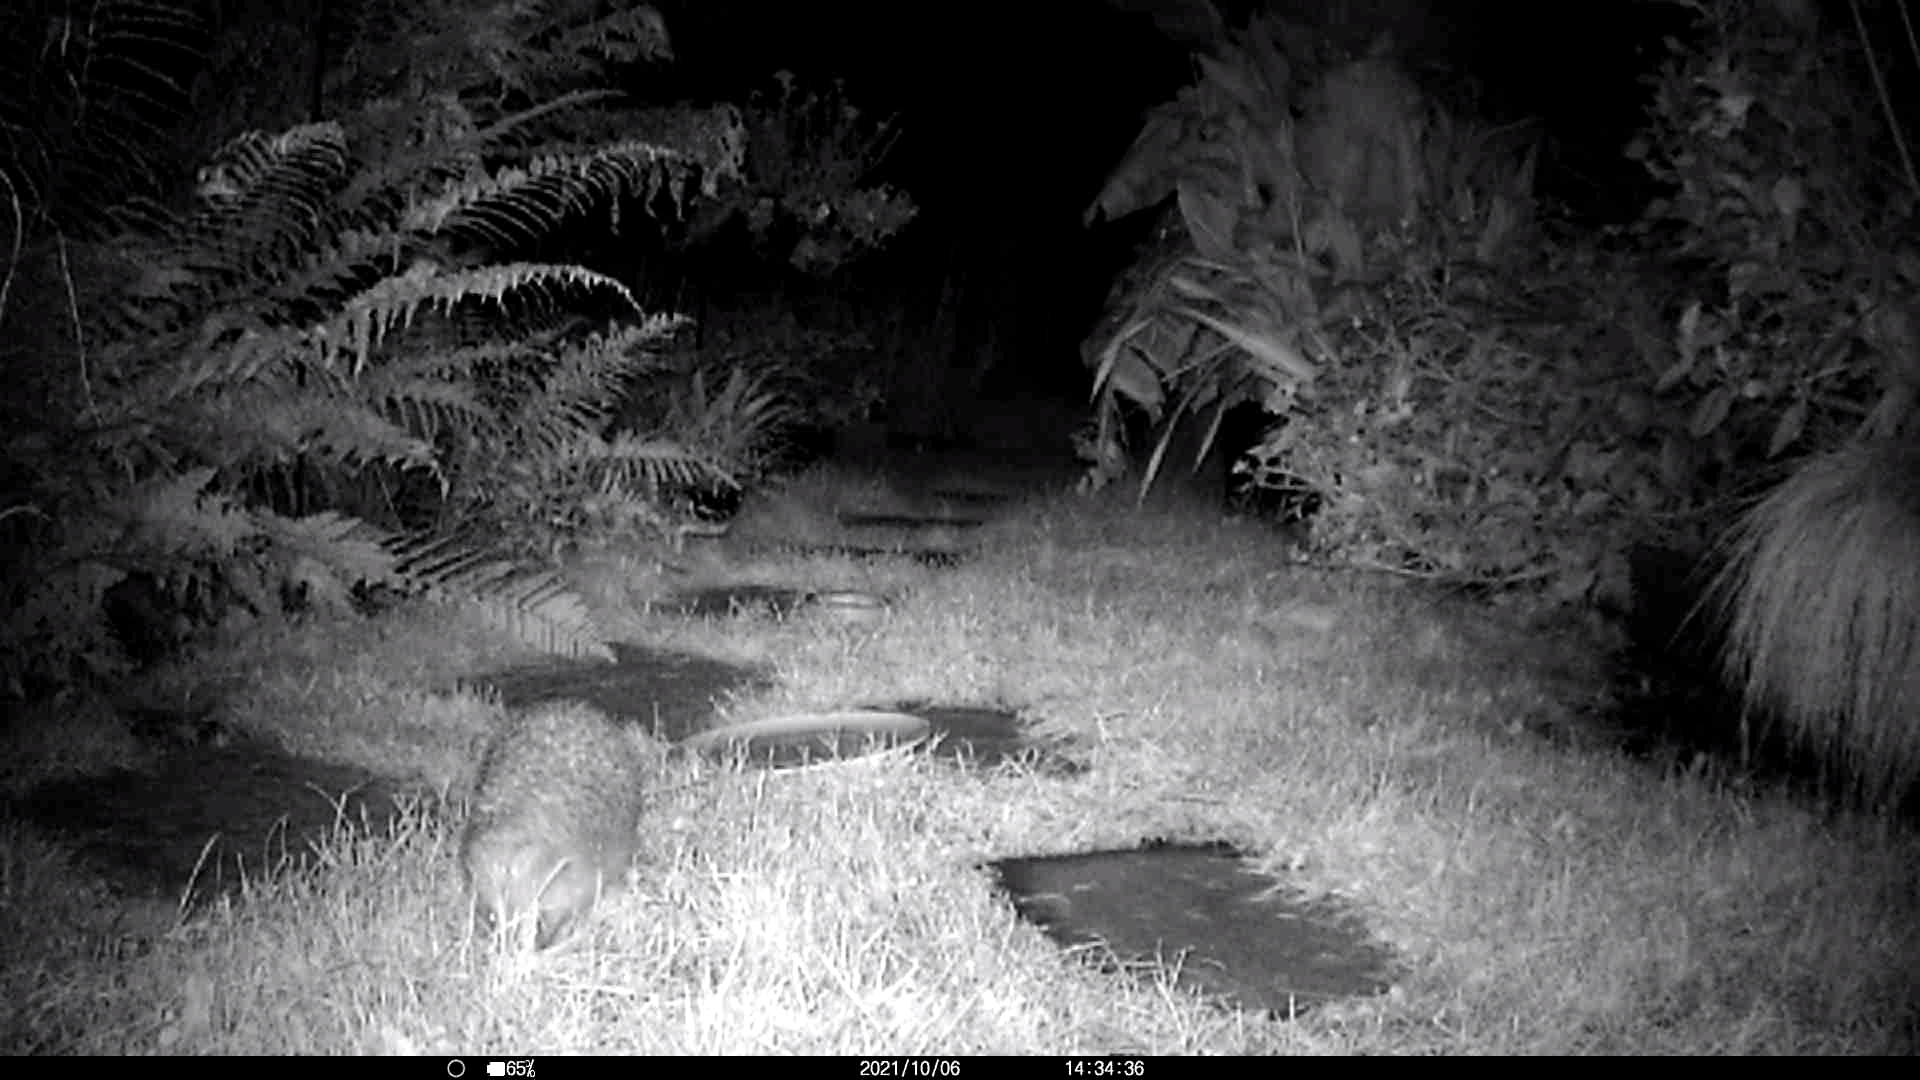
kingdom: Animalia
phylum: Chordata
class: Mammalia
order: Erinaceomorpha
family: Erinaceidae
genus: Erinaceus
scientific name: Erinaceus europaeus
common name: West european hedgehog
